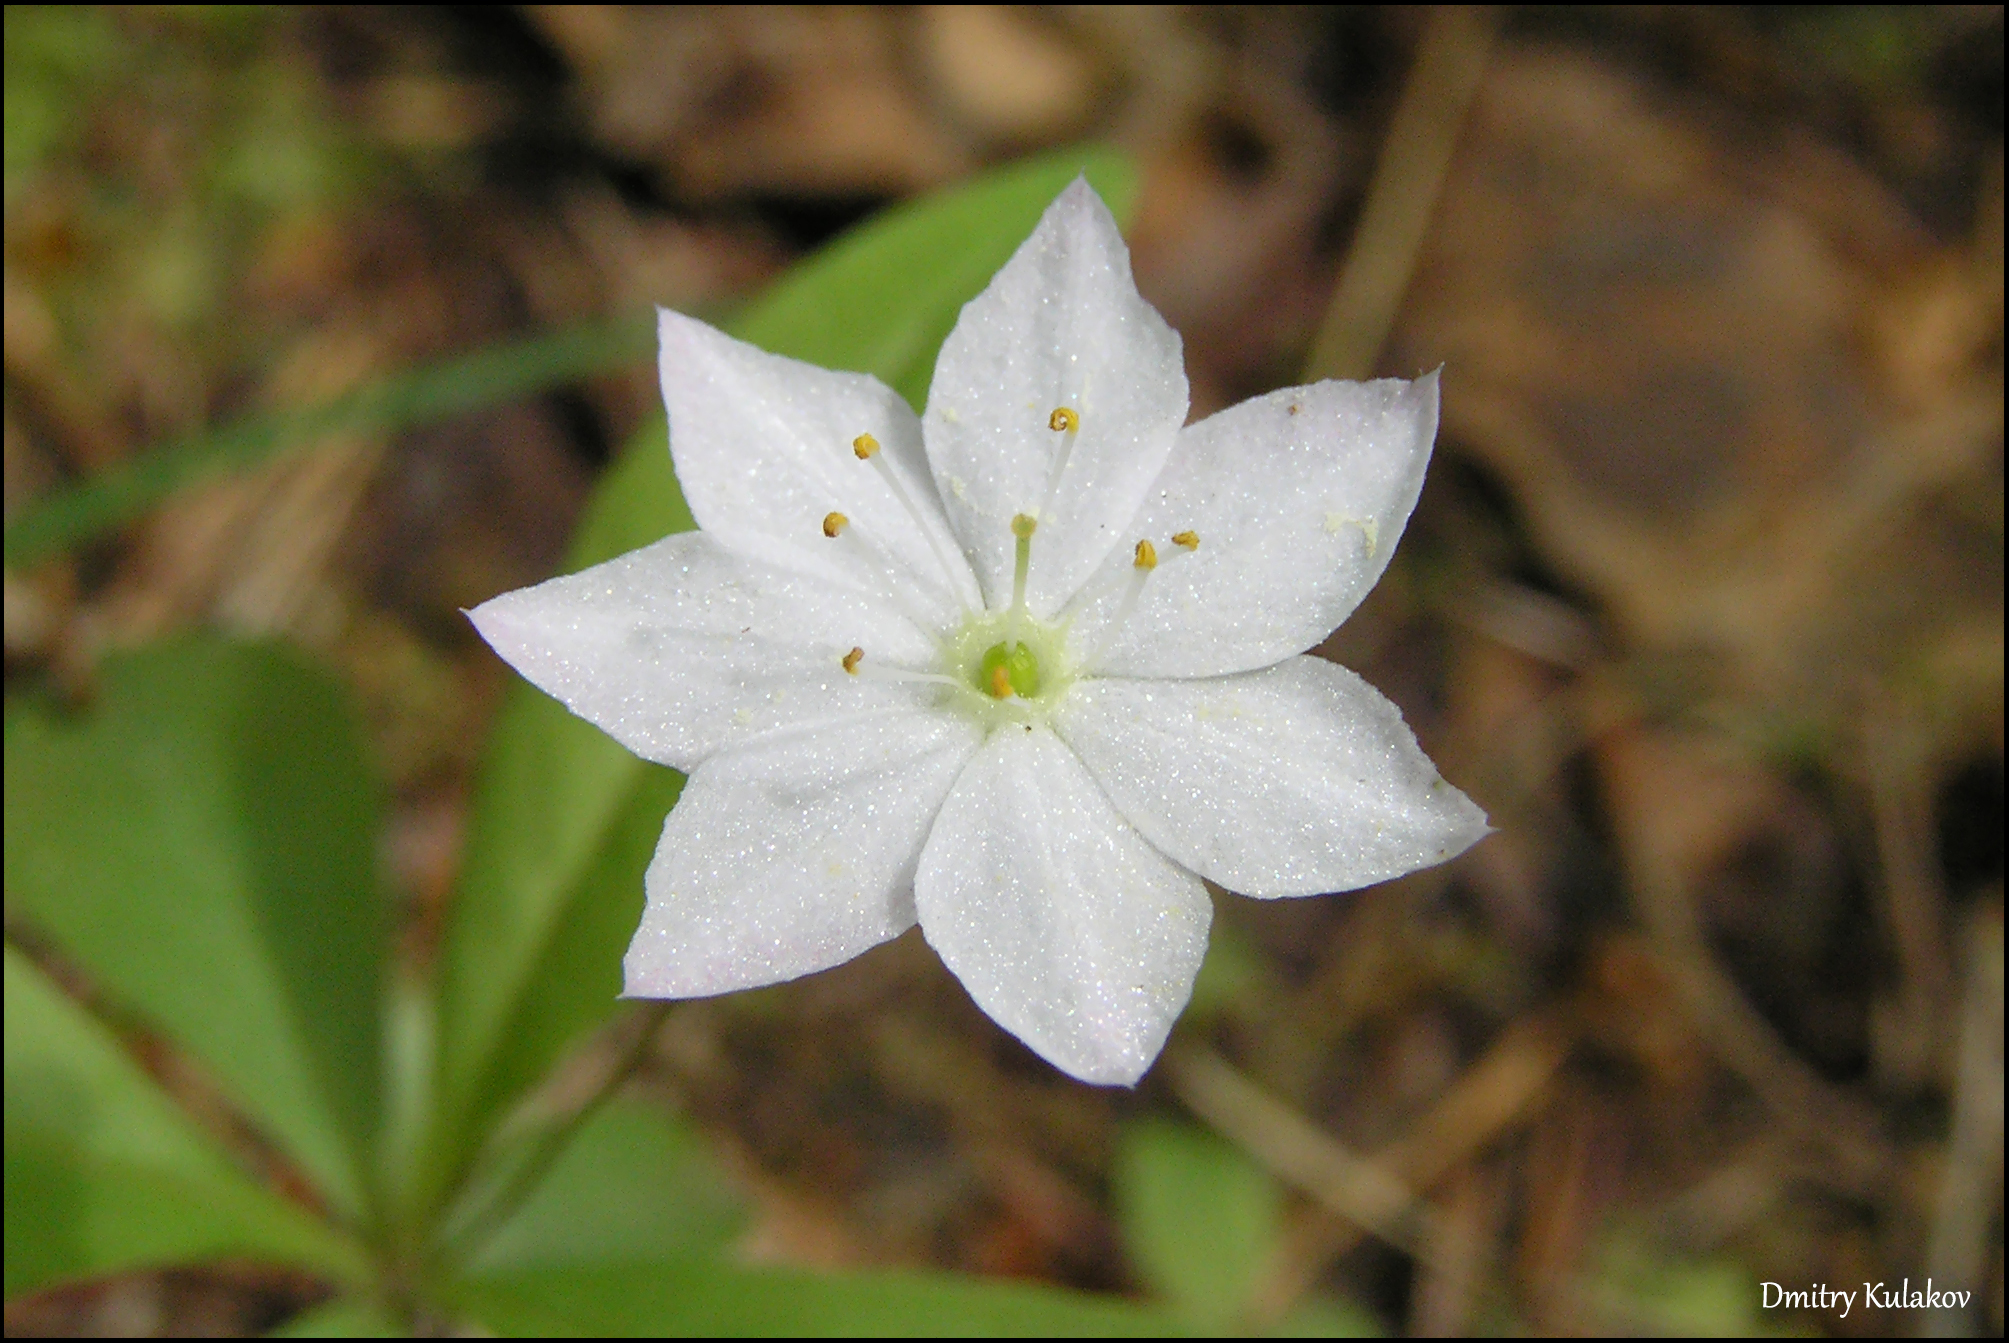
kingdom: Plantae
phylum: Tracheophyta
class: Magnoliopsida
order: Ericales
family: Primulaceae
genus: Lysimachia
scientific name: Lysimachia europaea
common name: Arctic starflower
